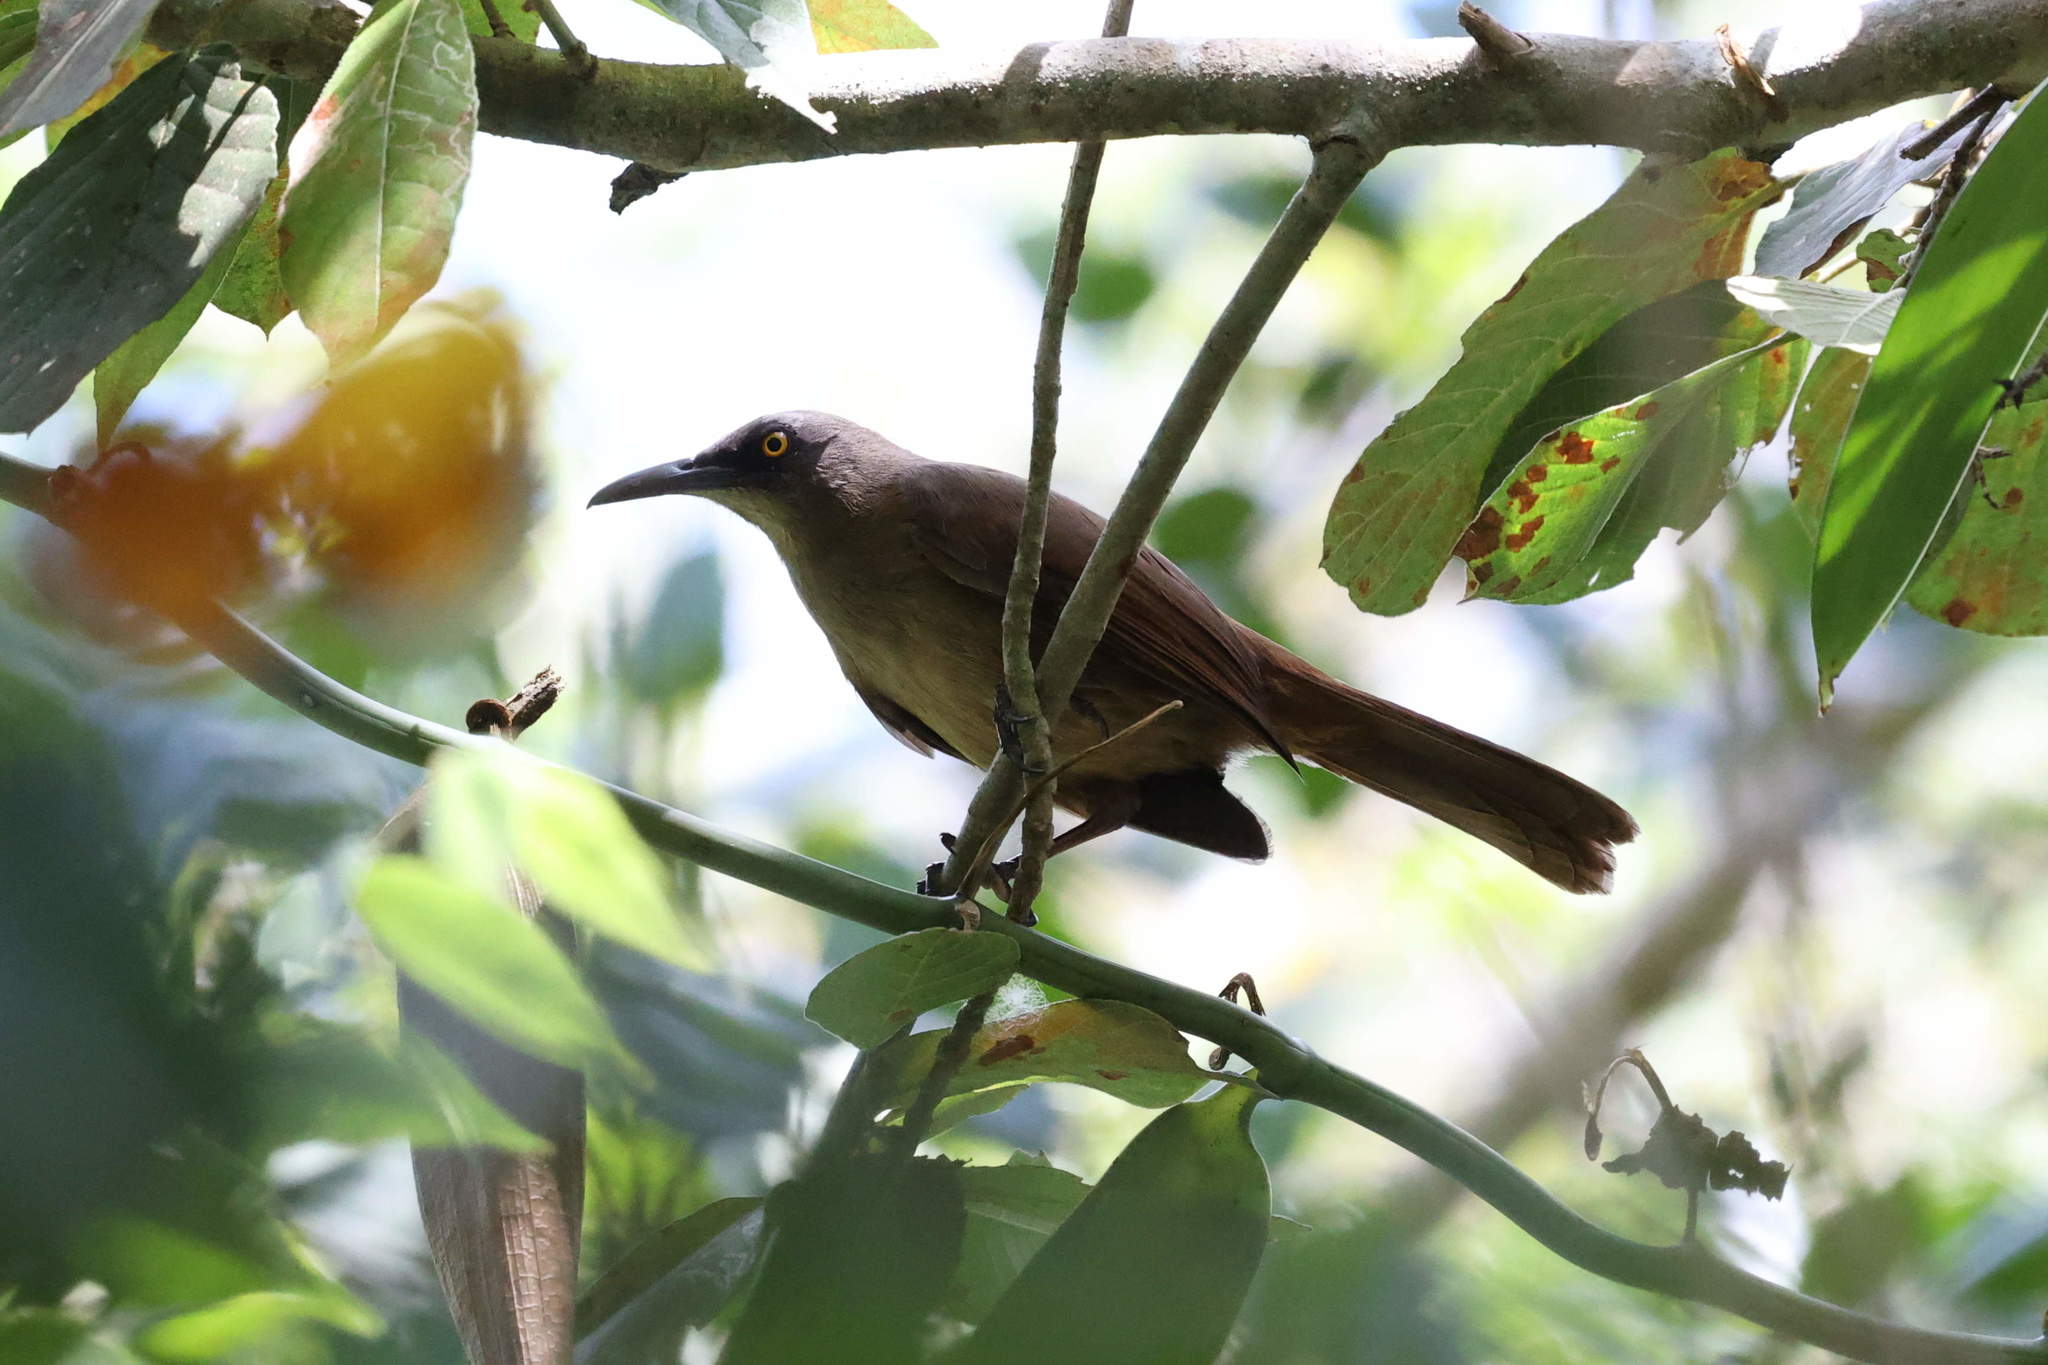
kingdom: Animalia
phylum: Chordata
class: Aves
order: Passeriformes
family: Mimidae
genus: Cinclocerthia
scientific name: Cinclocerthia ruficauda
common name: Brown trembler
